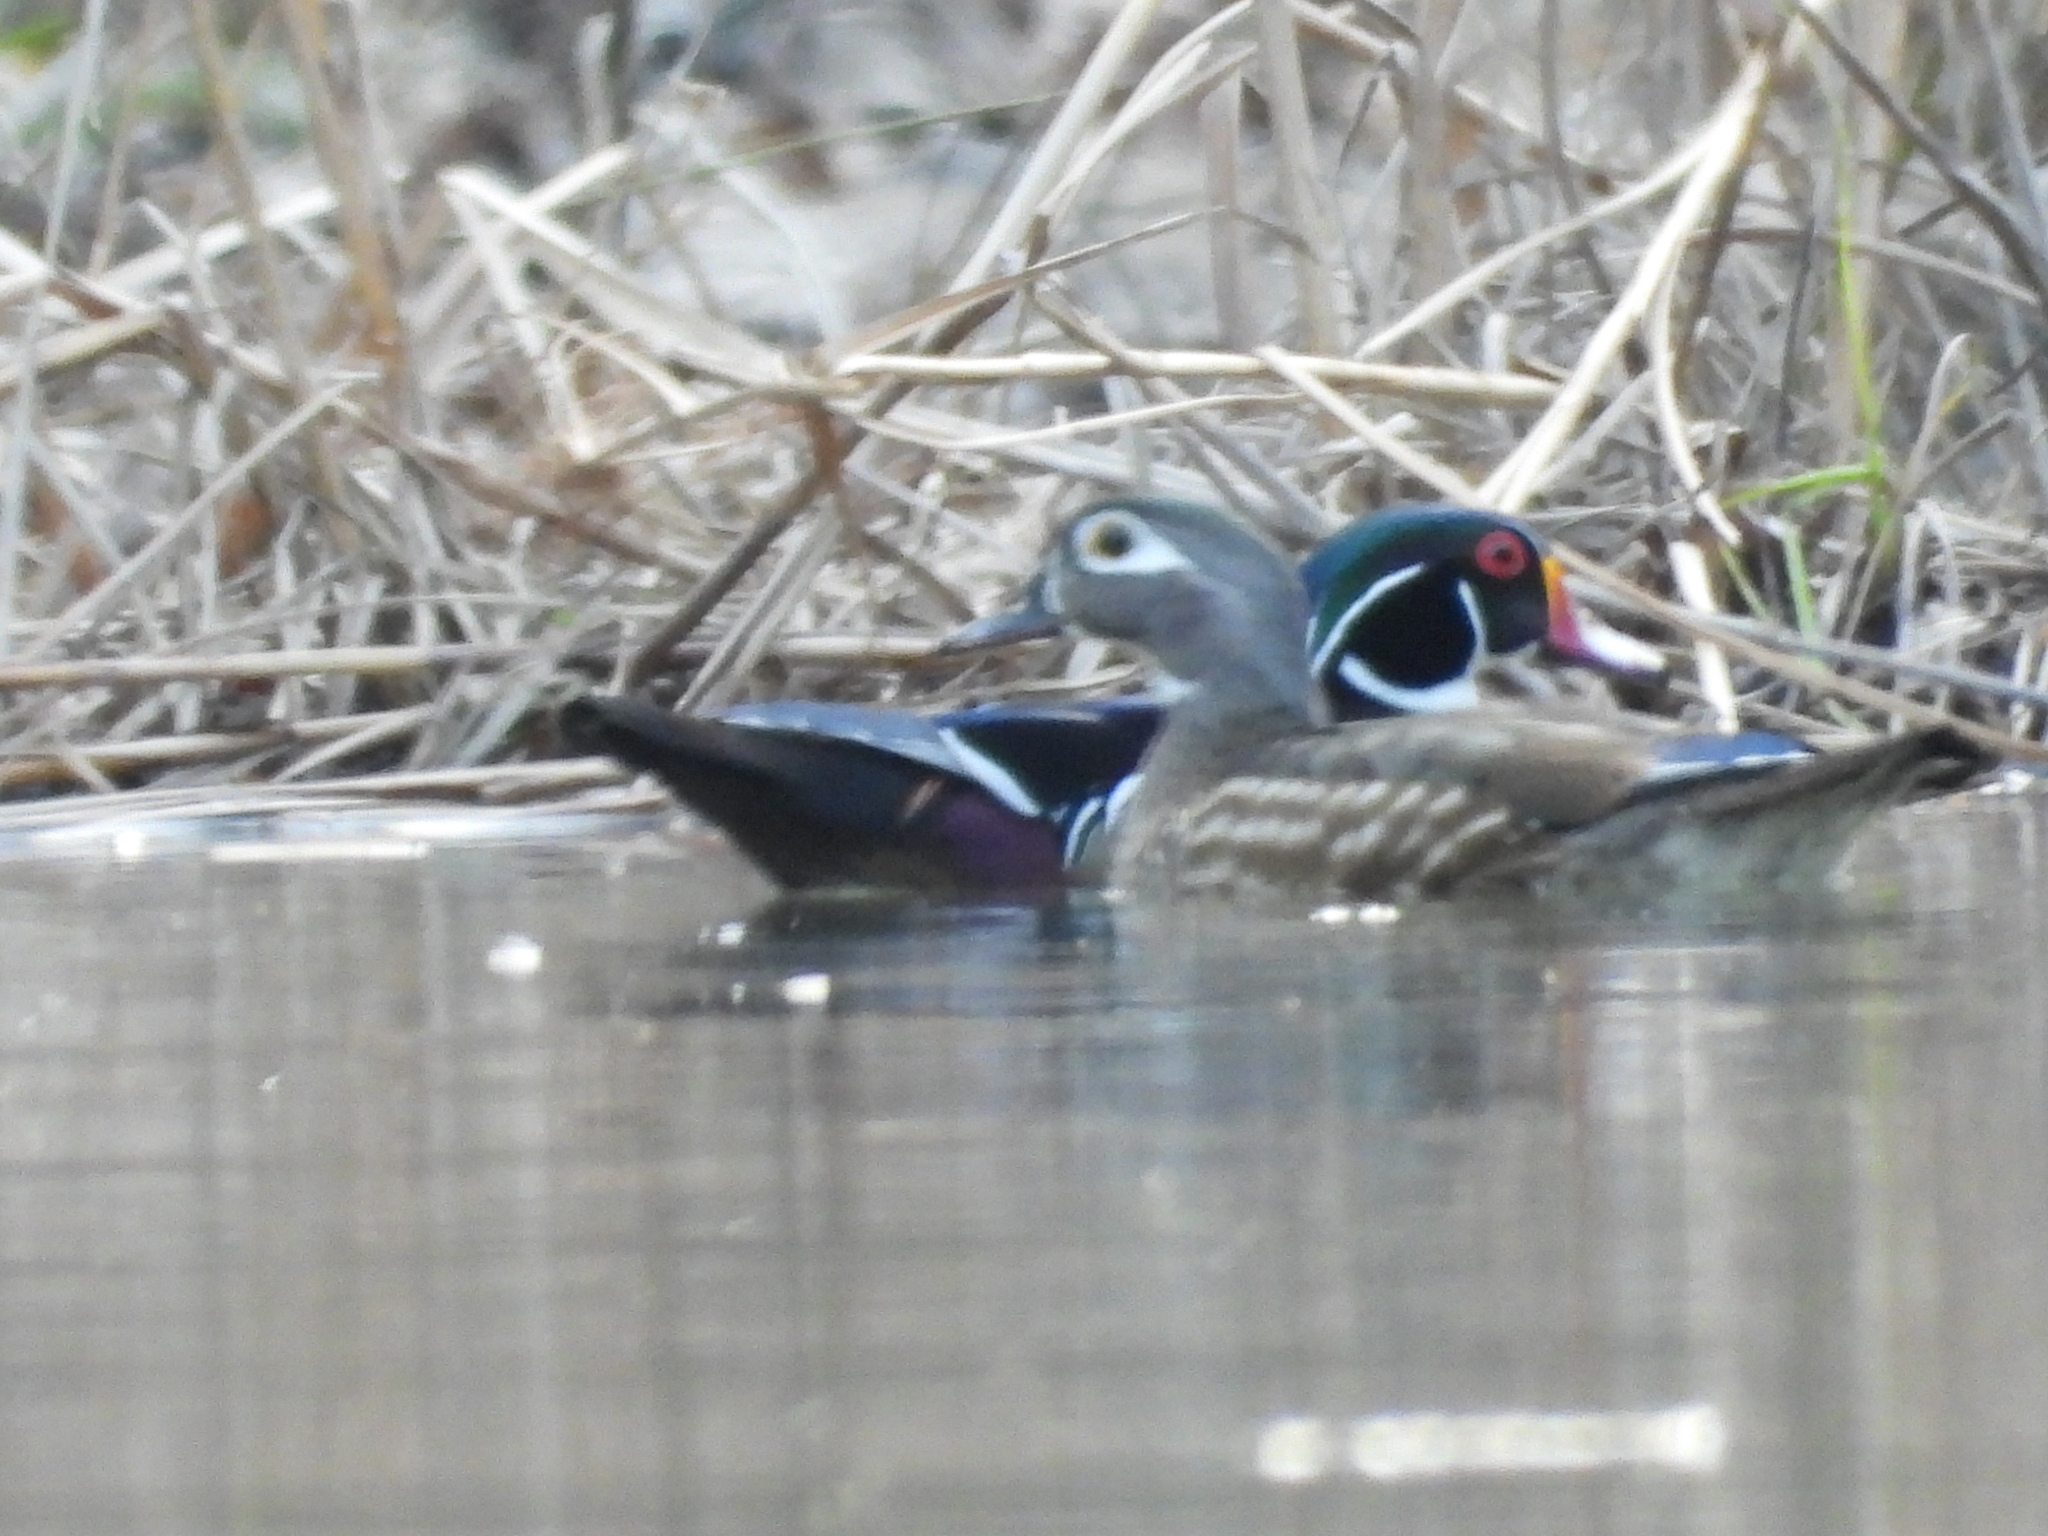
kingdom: Animalia
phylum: Chordata
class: Aves
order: Anseriformes
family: Anatidae
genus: Aix
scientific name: Aix sponsa
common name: Wood duck
